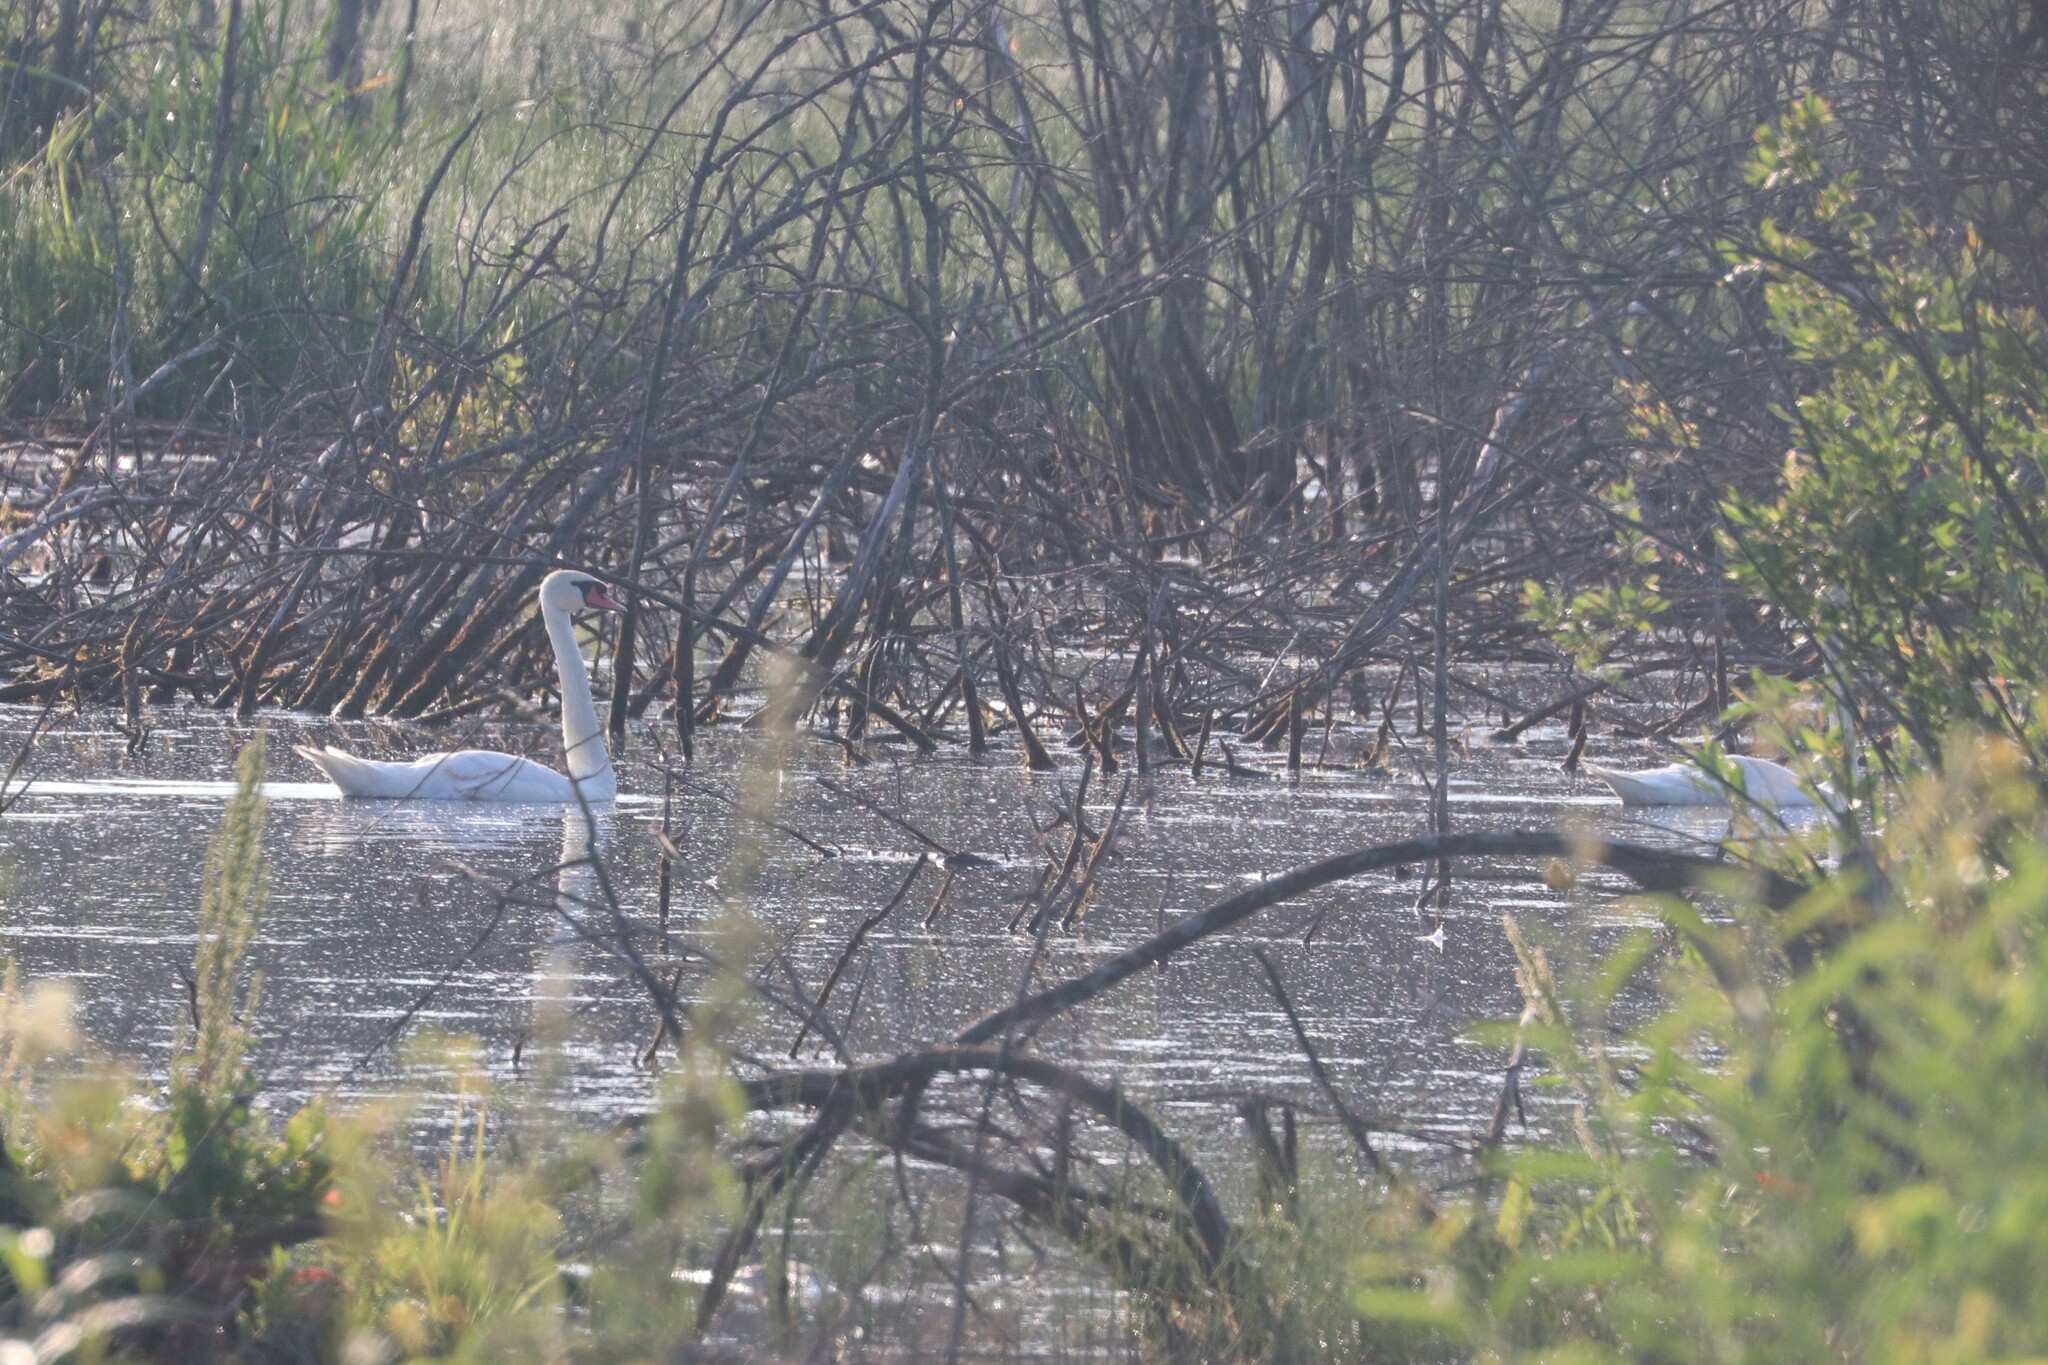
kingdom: Animalia
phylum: Chordata
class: Aves
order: Anseriformes
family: Anatidae
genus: Cygnus
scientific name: Cygnus olor
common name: Mute swan
